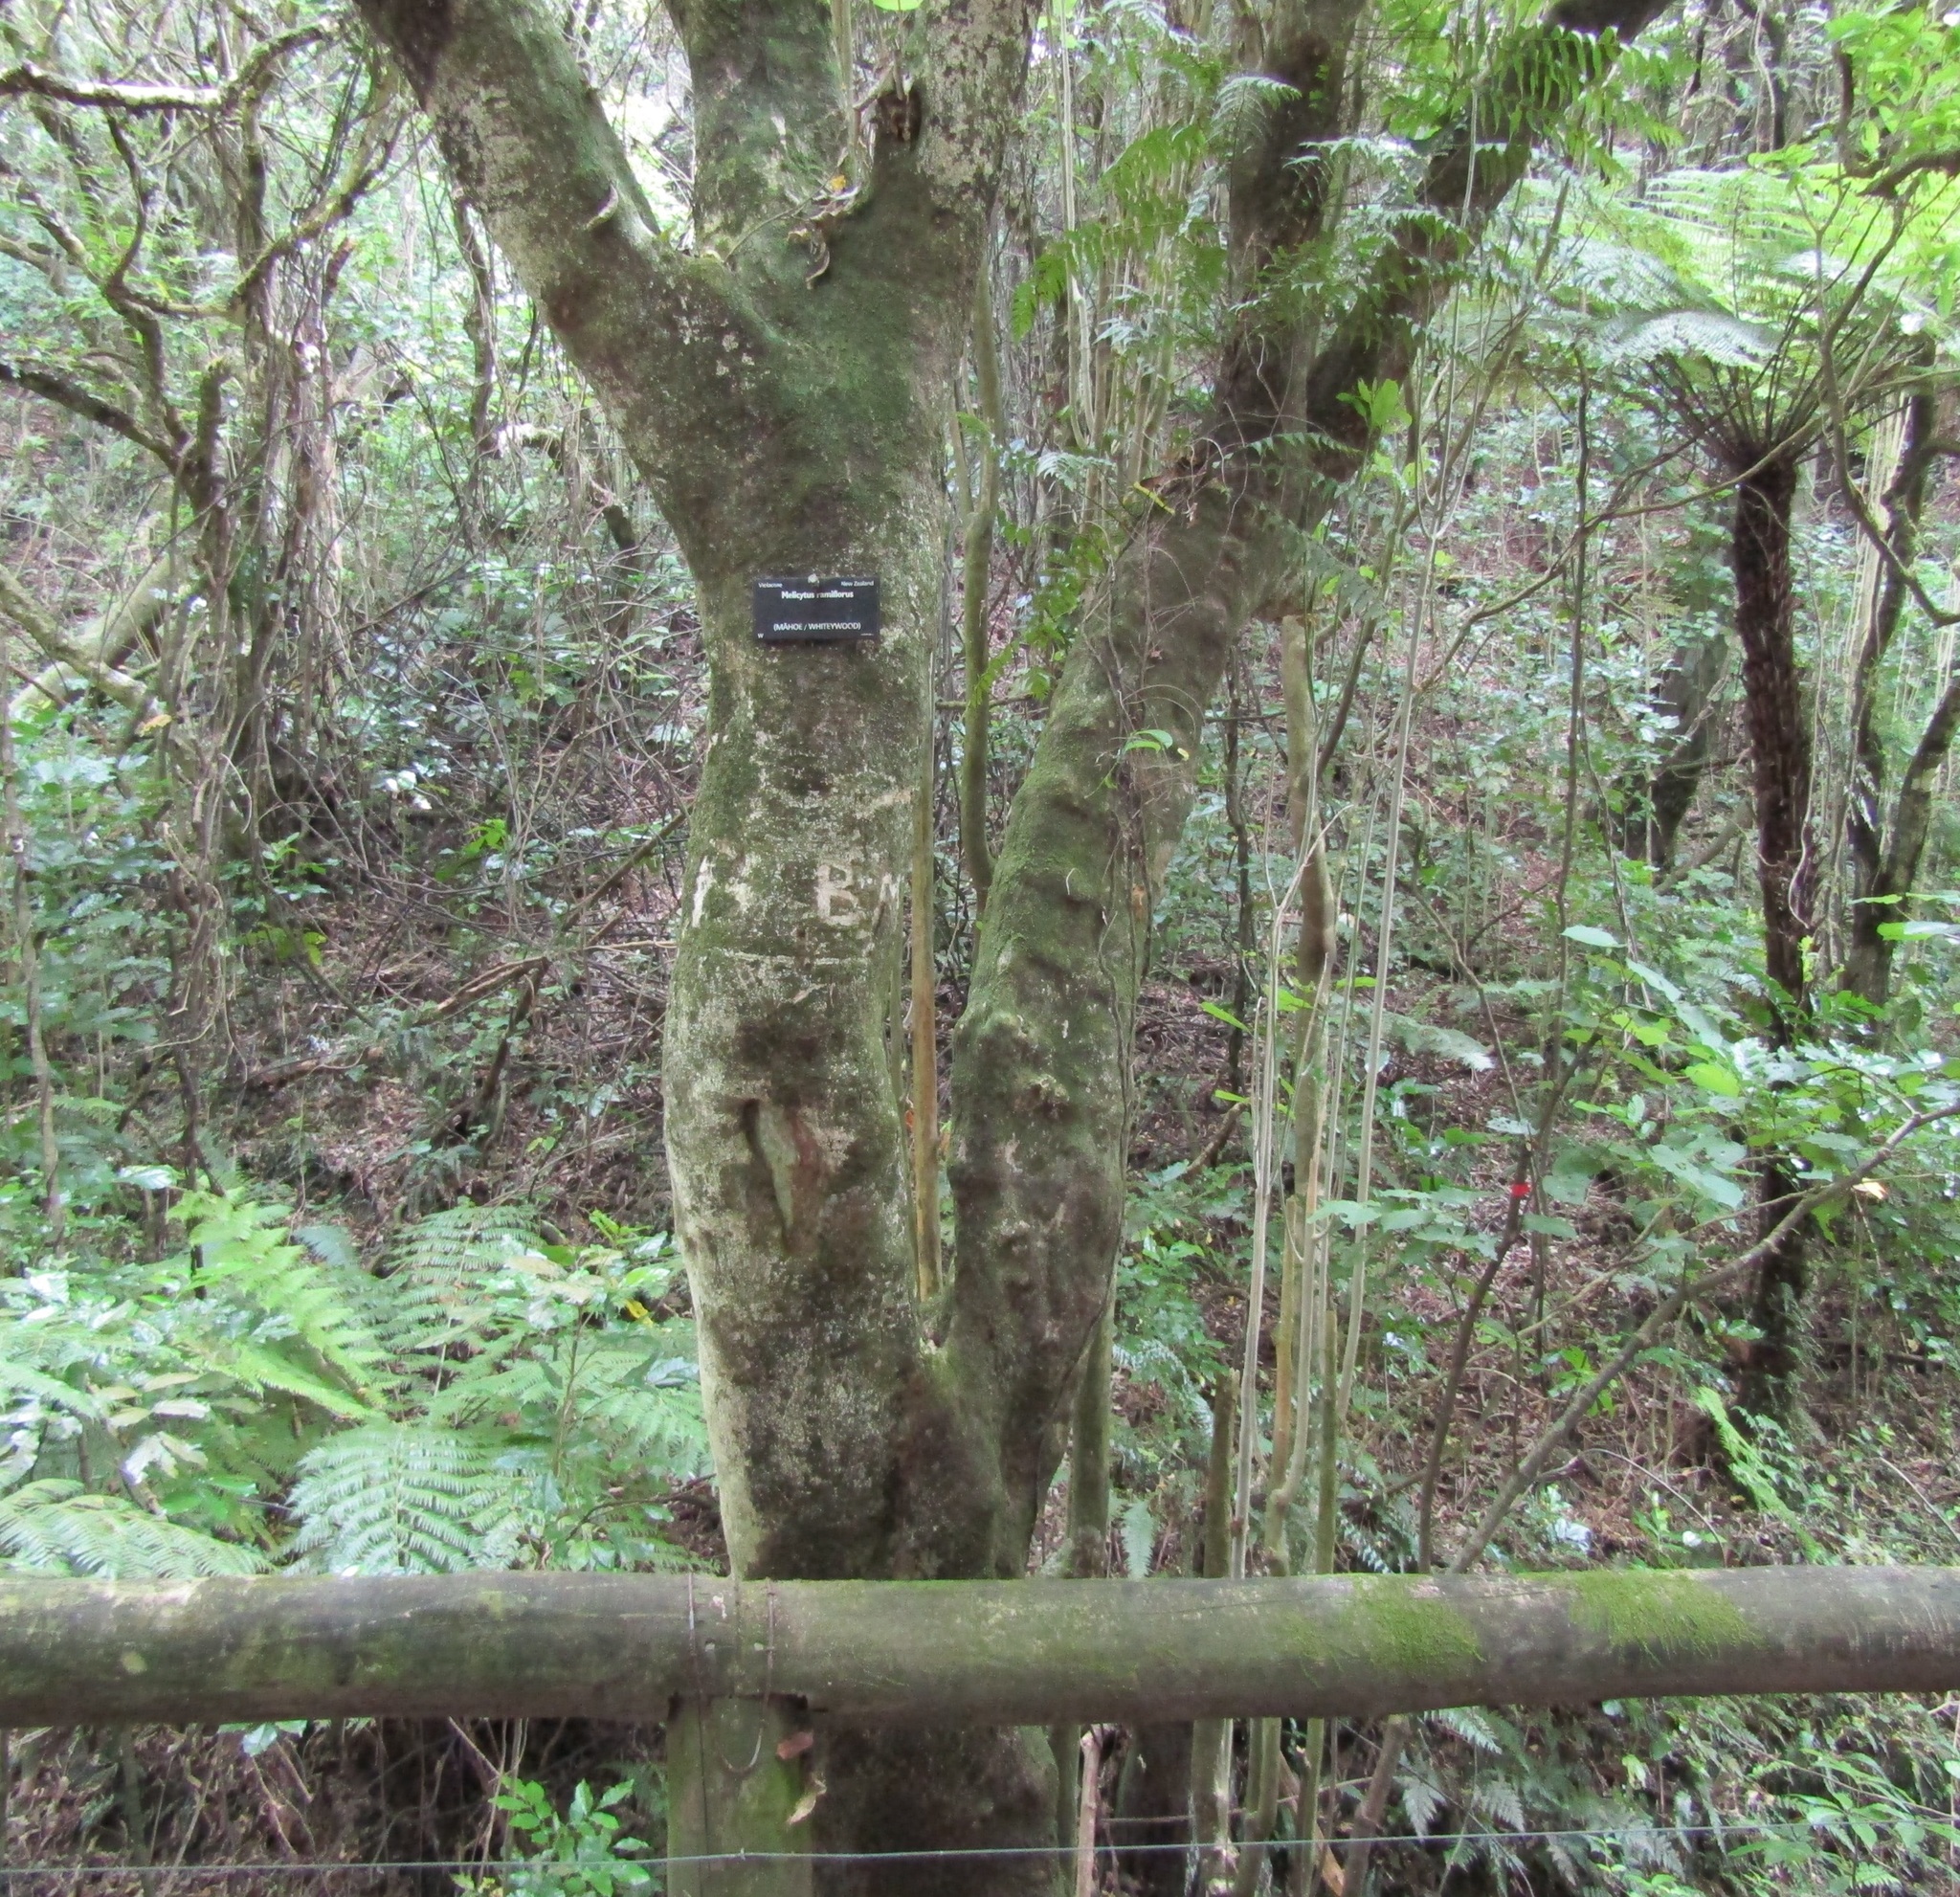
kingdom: Plantae
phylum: Tracheophyta
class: Magnoliopsida
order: Malpighiales
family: Violaceae
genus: Melicytus
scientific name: Melicytus ramiflorus
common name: Mahoe
